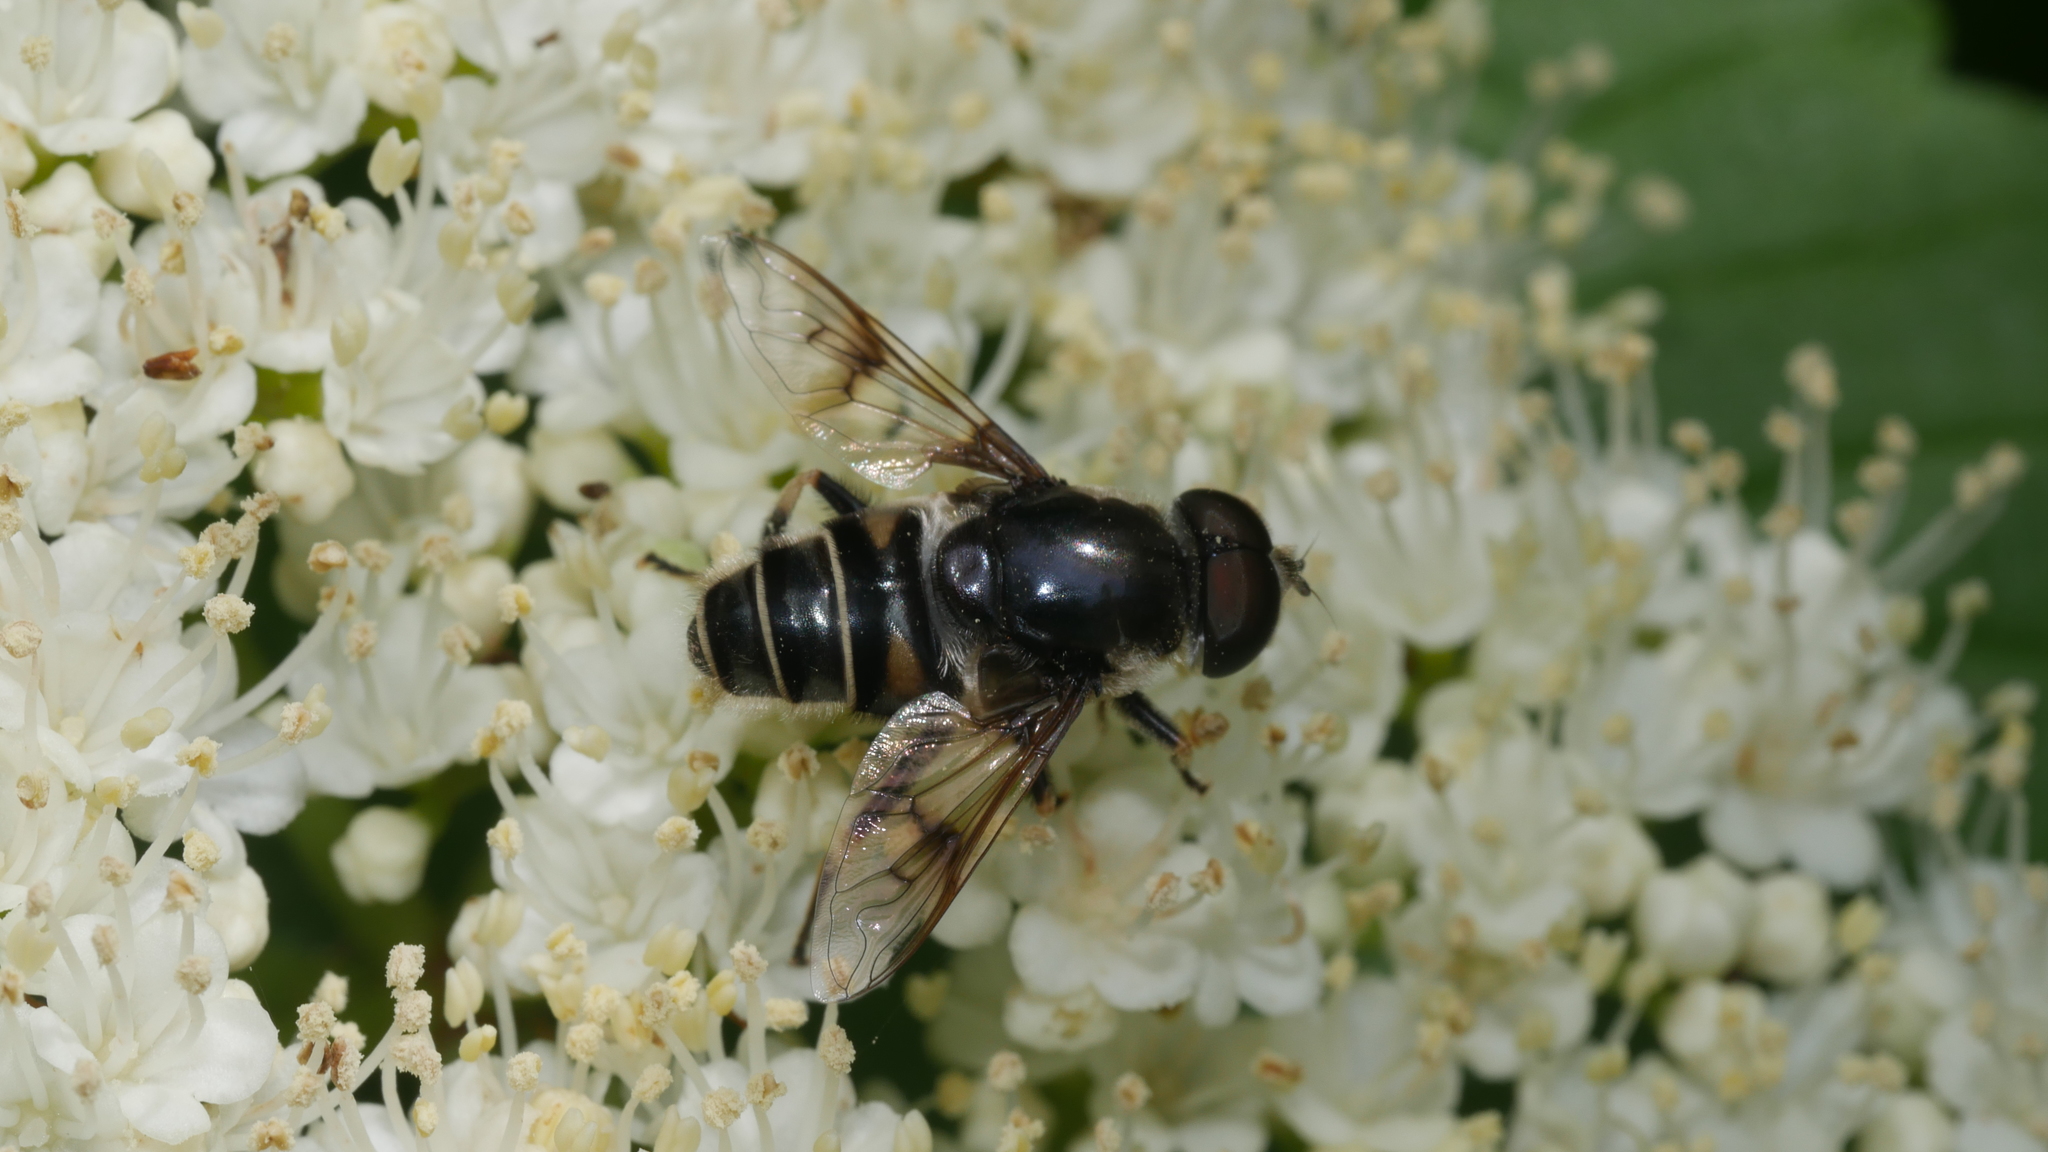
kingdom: Animalia
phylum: Arthropoda
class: Insecta
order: Diptera
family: Syrphidae
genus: Eristalis
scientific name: Eristalis dimidiata
